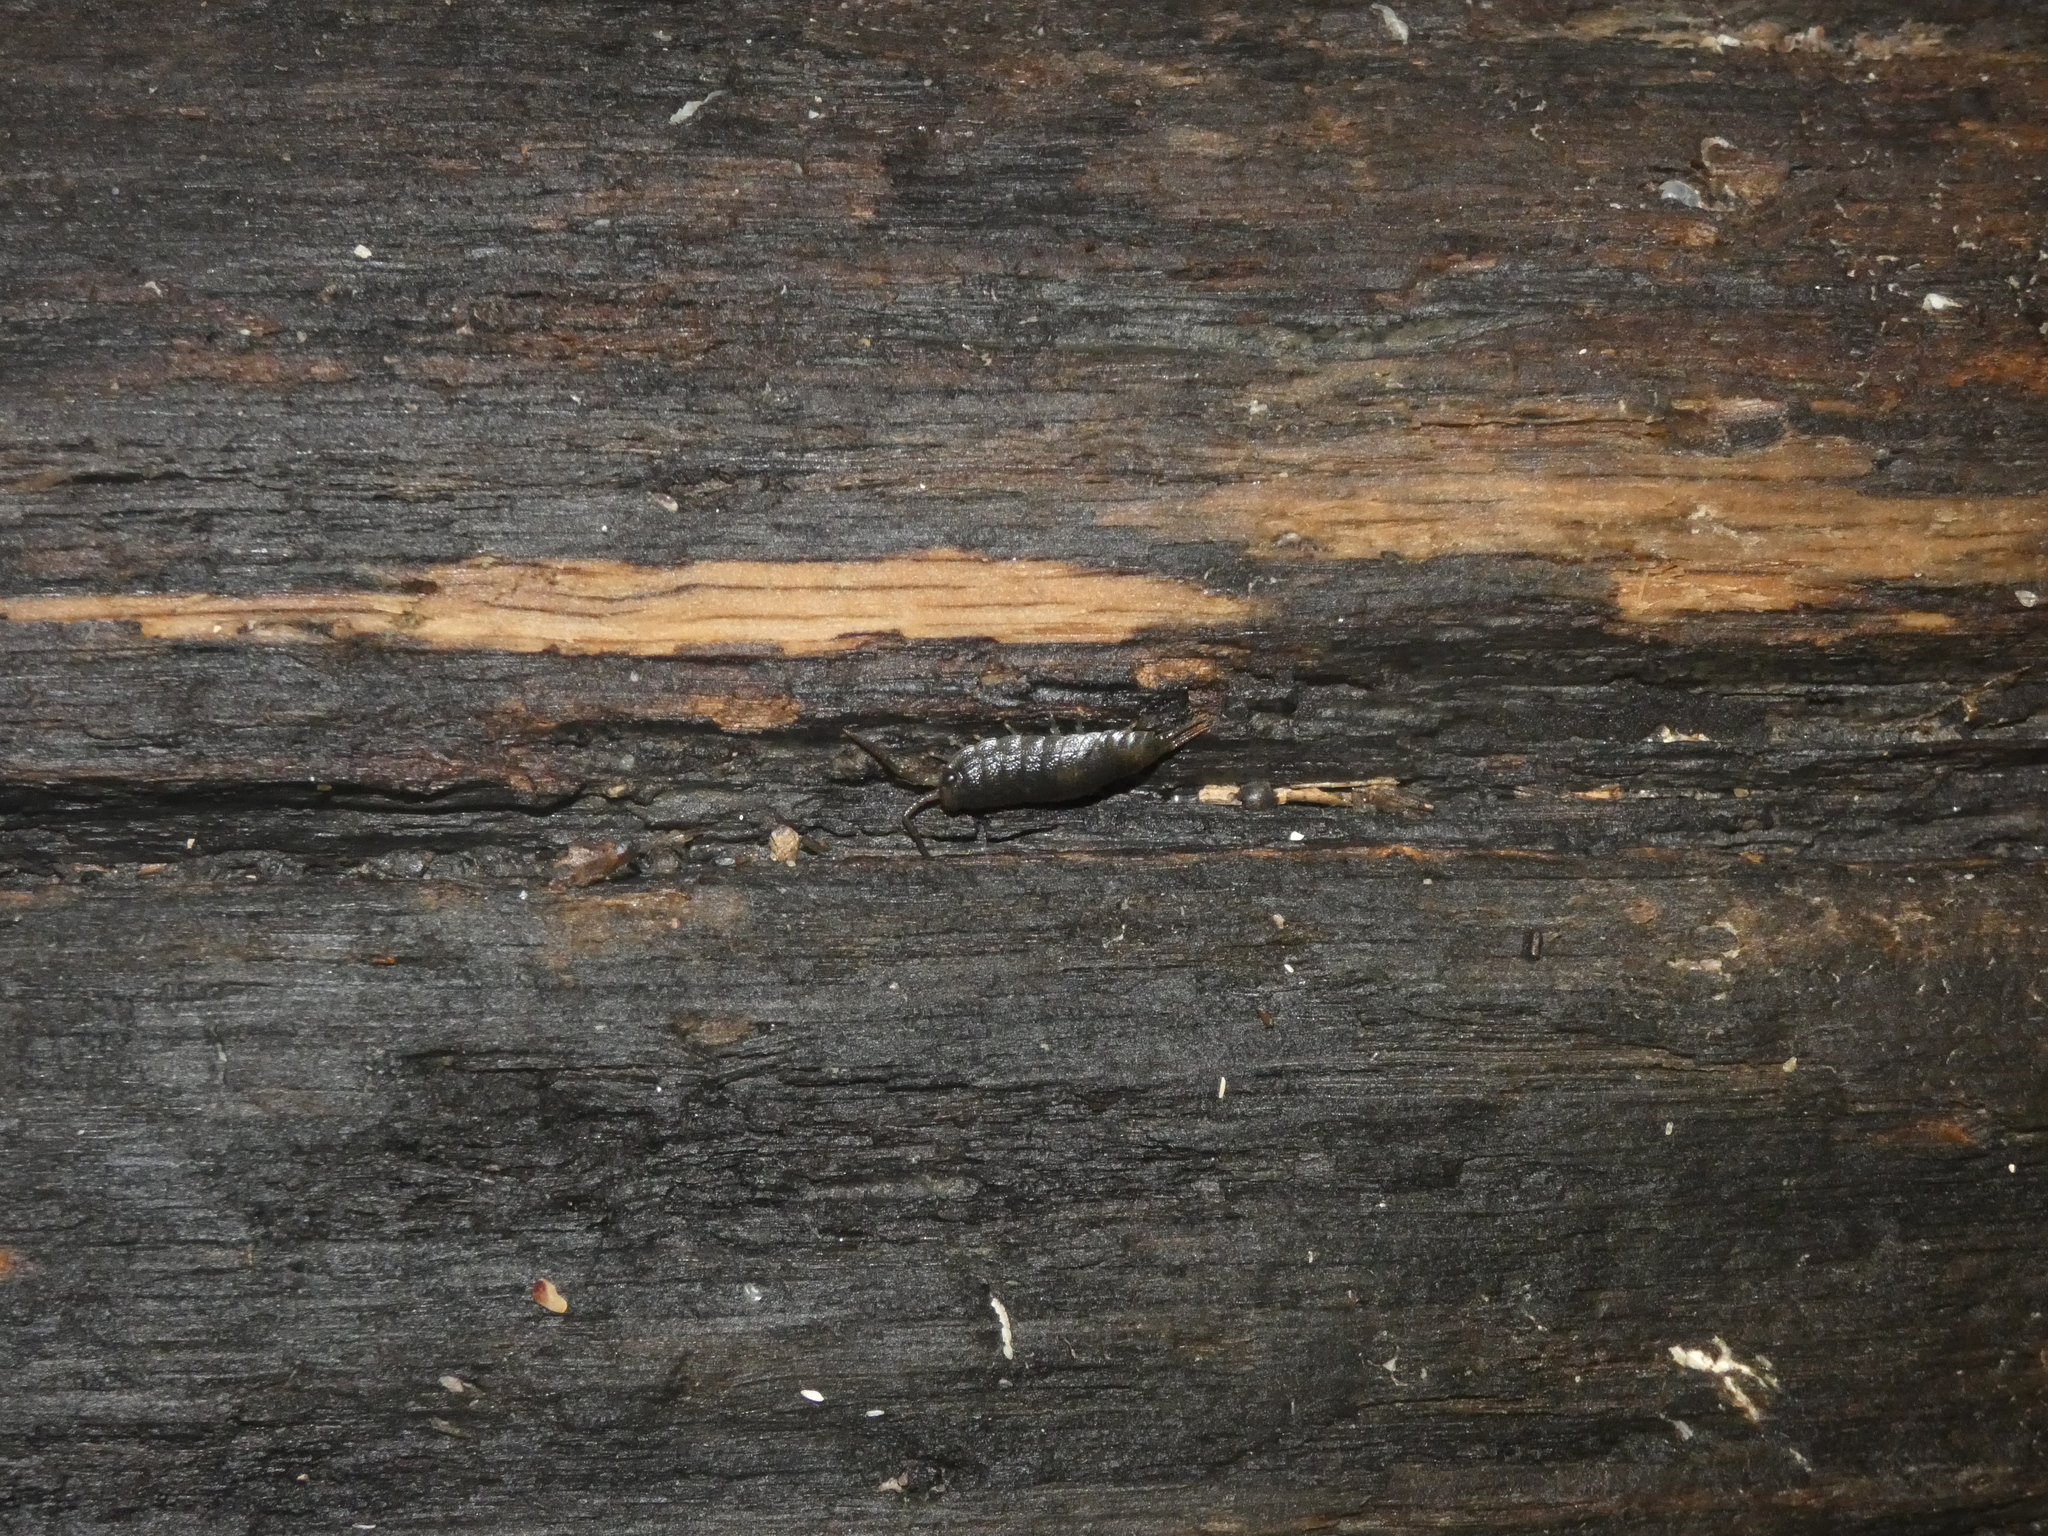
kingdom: Animalia
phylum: Arthropoda
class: Malacostraca
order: Isopoda
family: Ligiidae
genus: Ligia
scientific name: Ligia oceanica
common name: Sea slater
